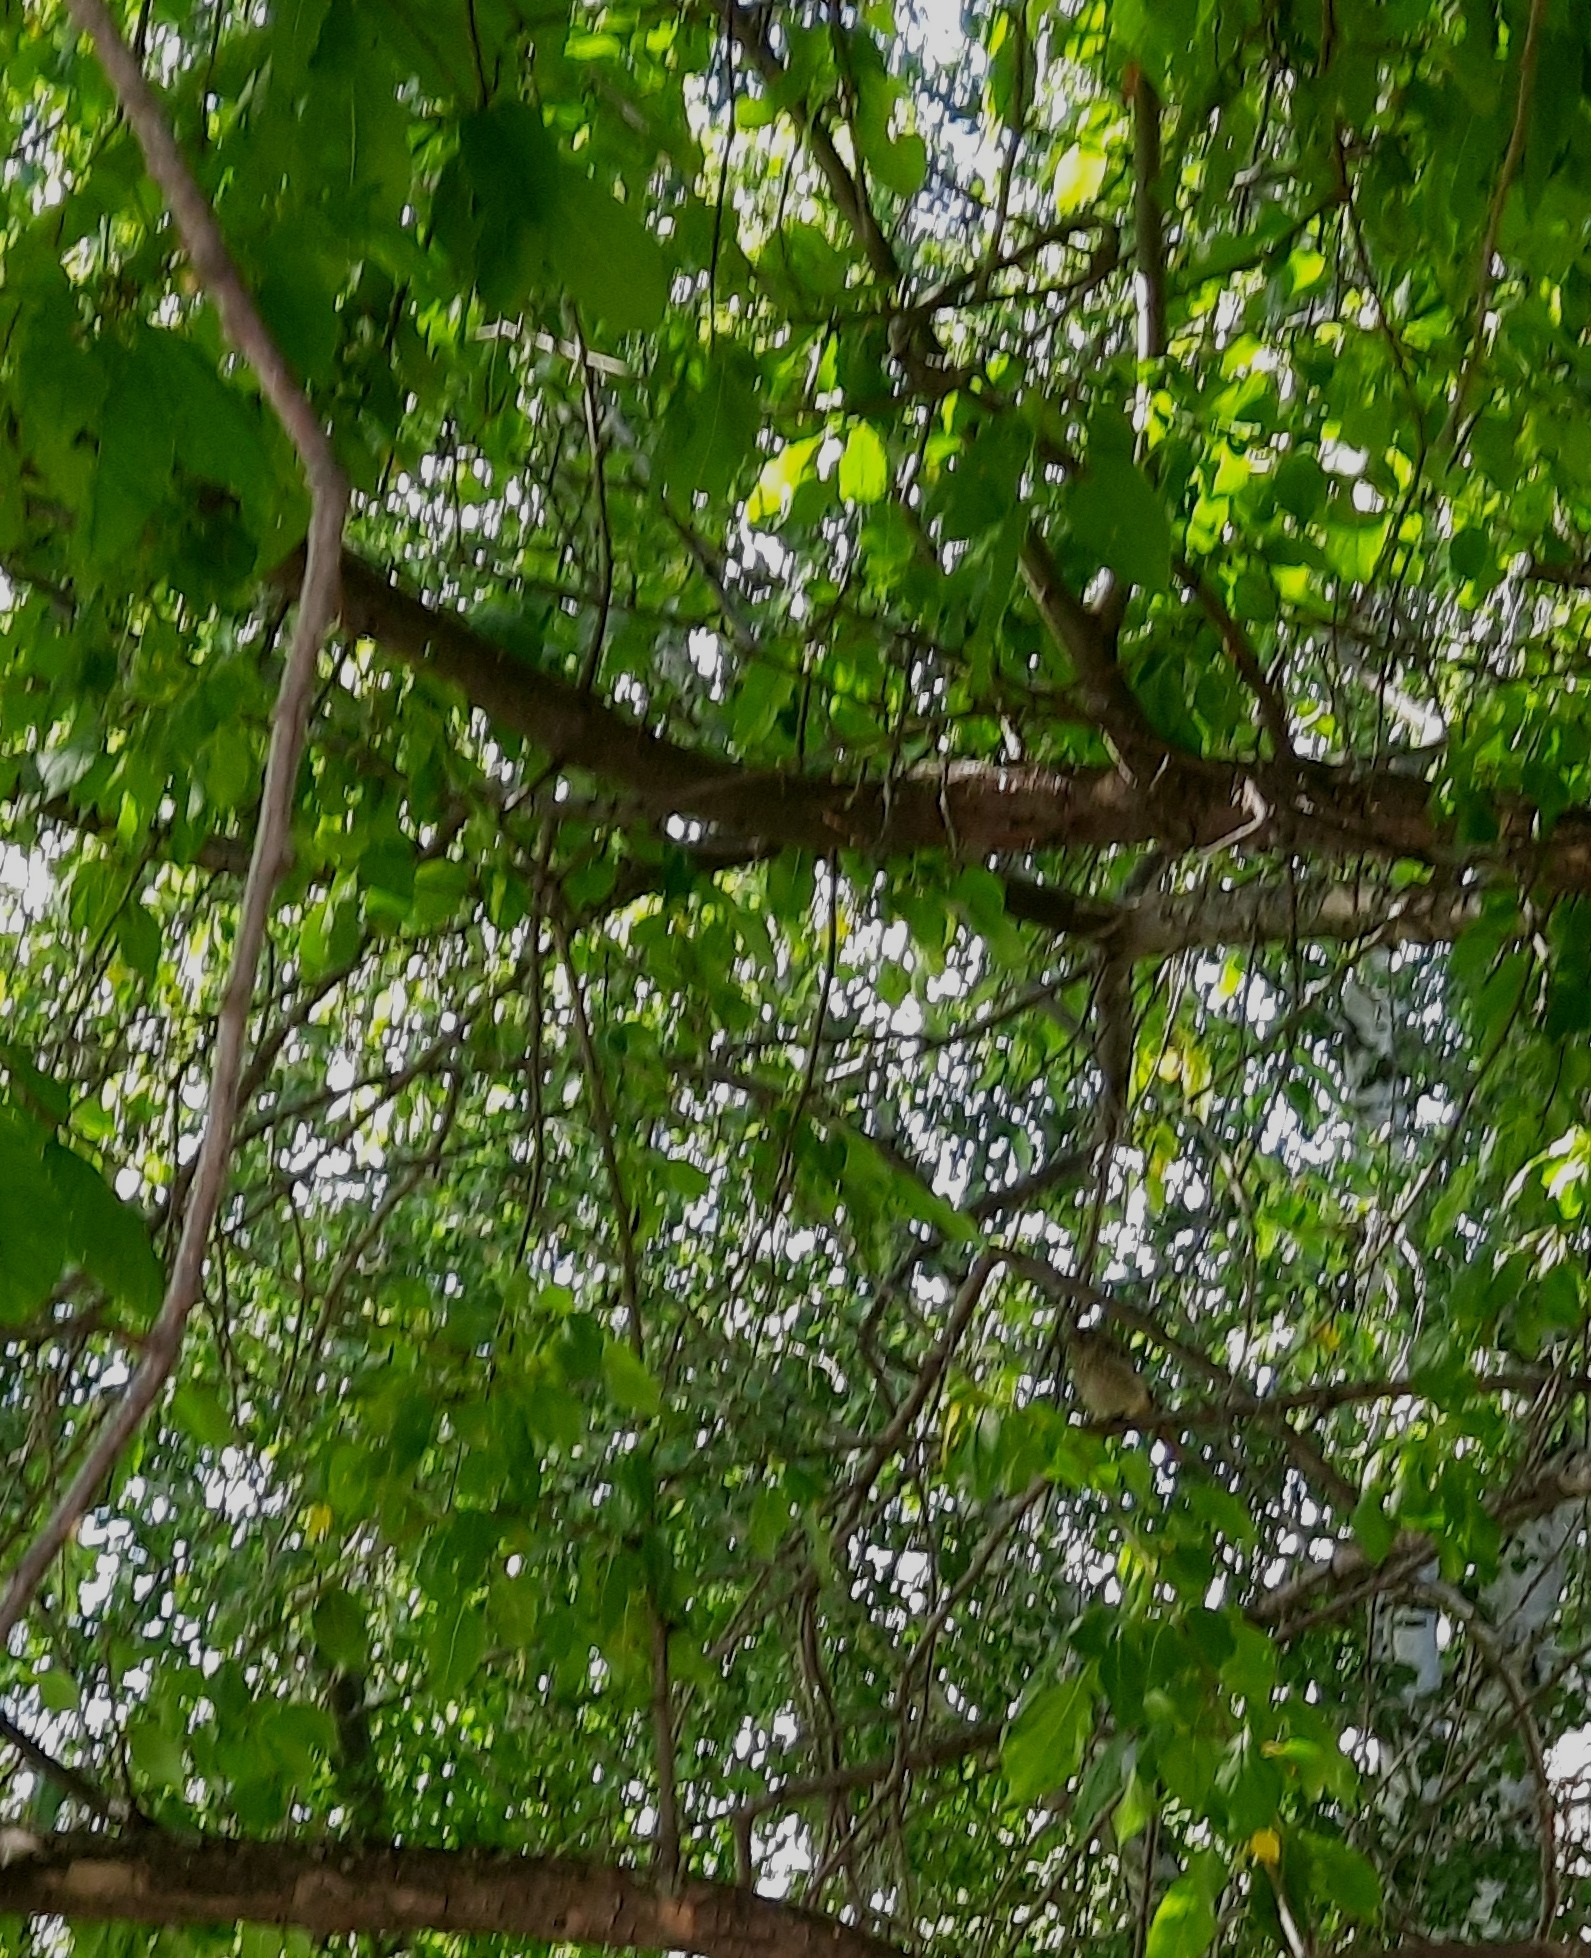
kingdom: Animalia
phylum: Chordata
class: Aves
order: Passeriformes
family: Sylviidae
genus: Sylvia
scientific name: Sylvia curruca
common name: Lesser whitethroat
